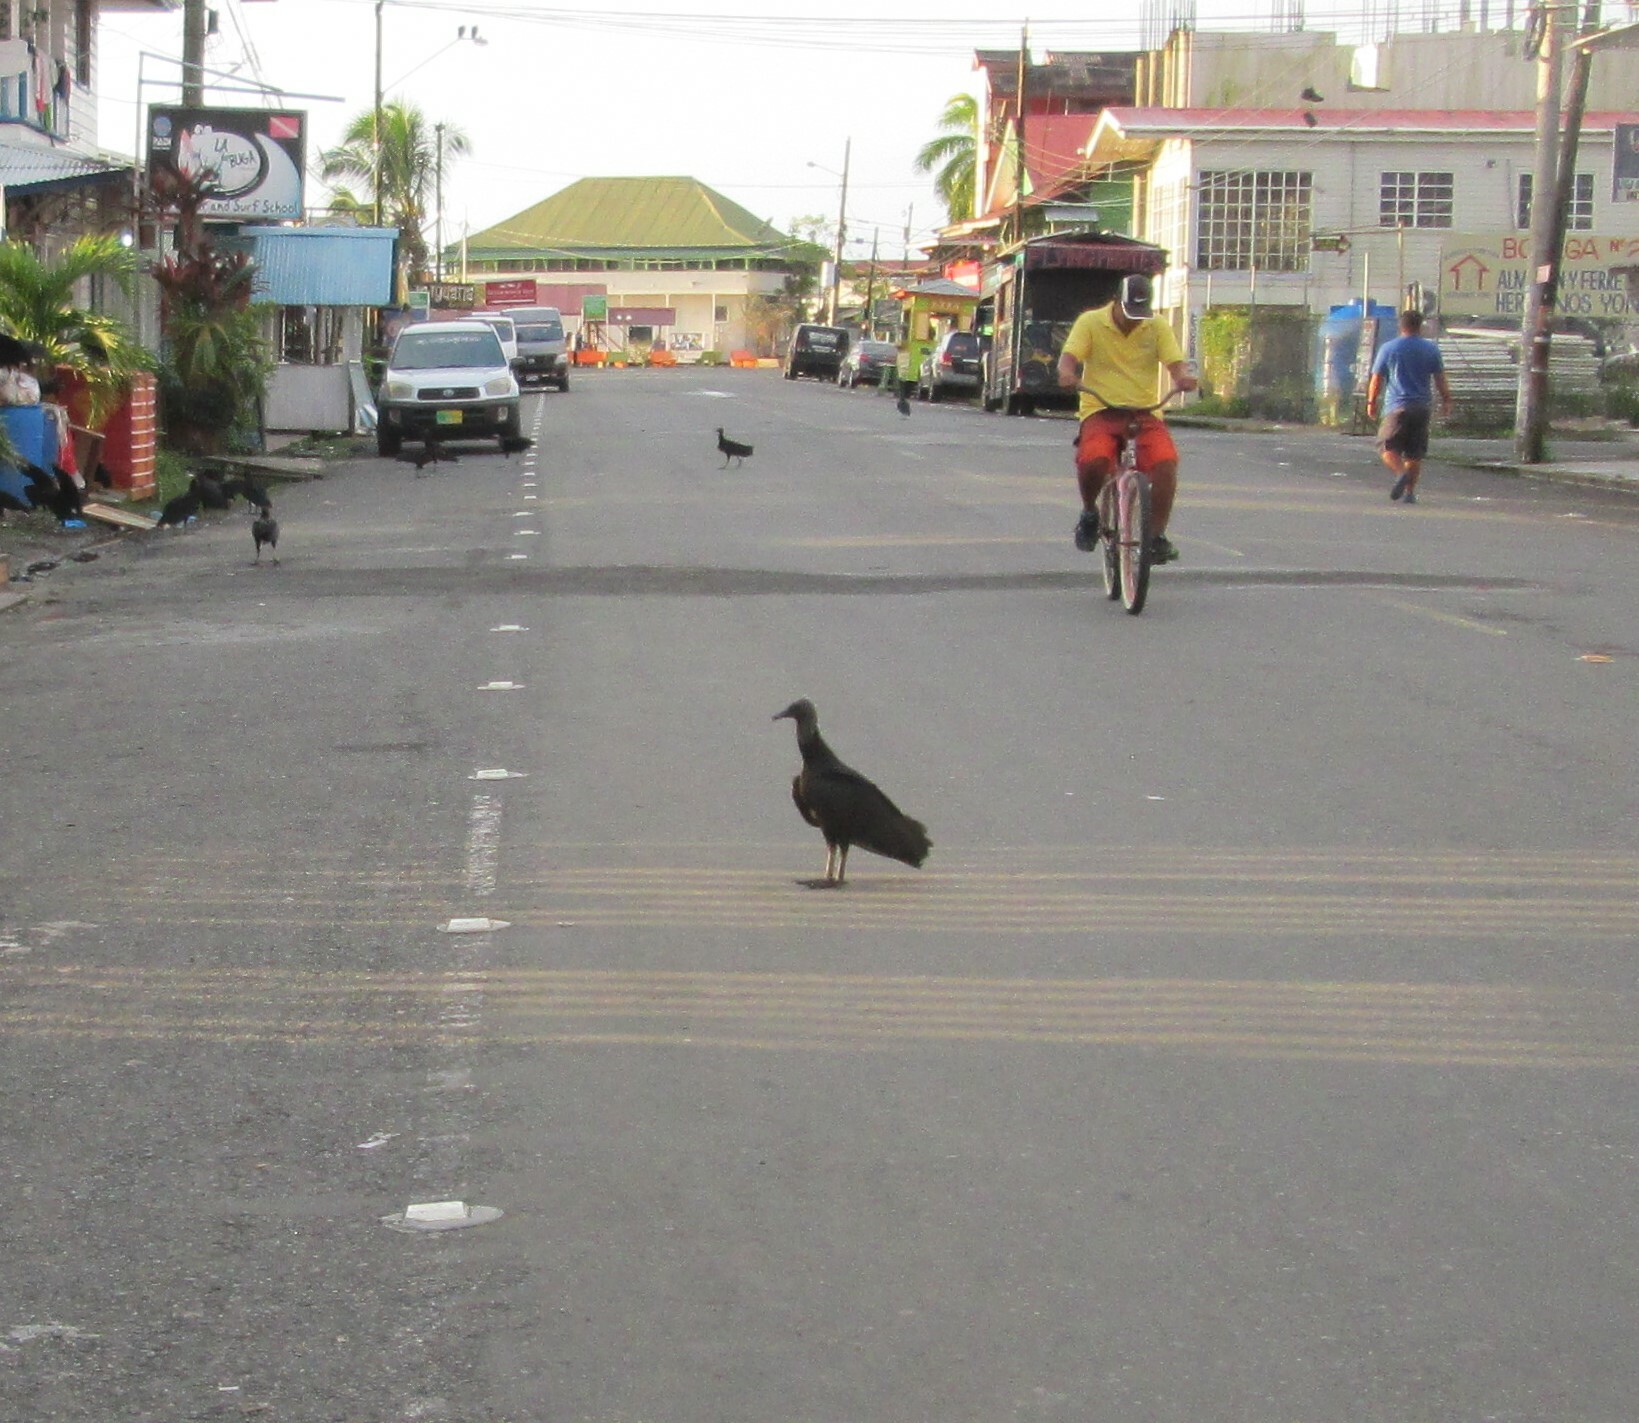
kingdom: Animalia
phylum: Chordata
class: Aves
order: Accipitriformes
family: Cathartidae
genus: Coragyps
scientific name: Coragyps atratus
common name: Black vulture
